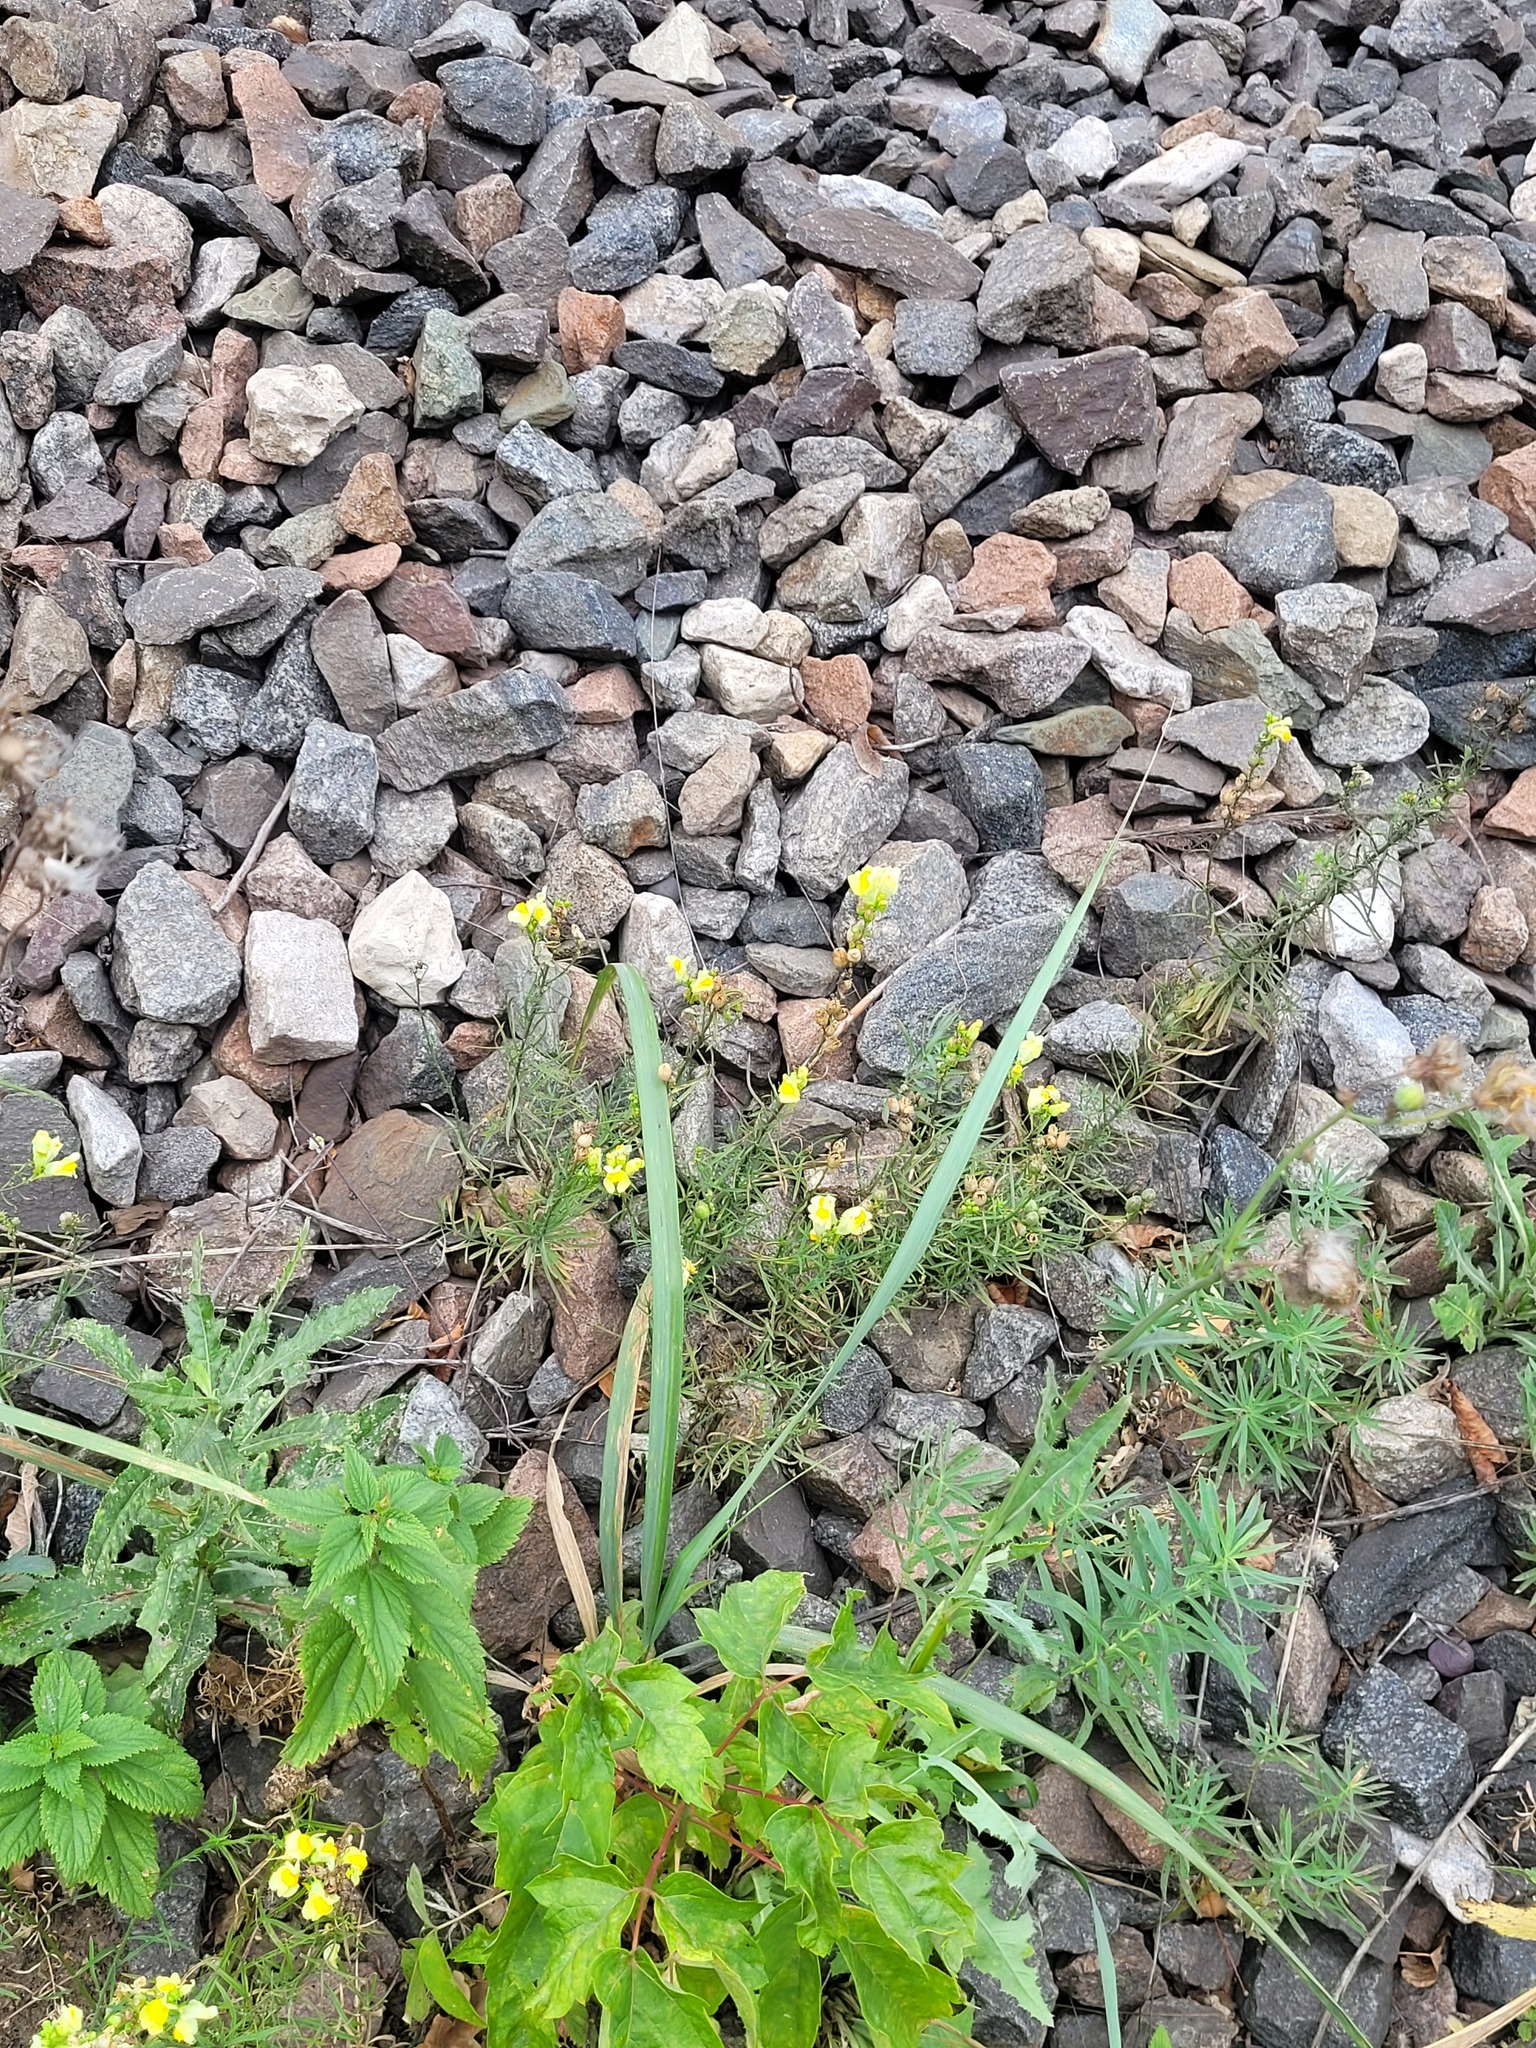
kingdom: Plantae
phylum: Tracheophyta
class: Magnoliopsida
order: Lamiales
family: Plantaginaceae
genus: Linaria
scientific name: Linaria vulgaris
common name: Butter and eggs
